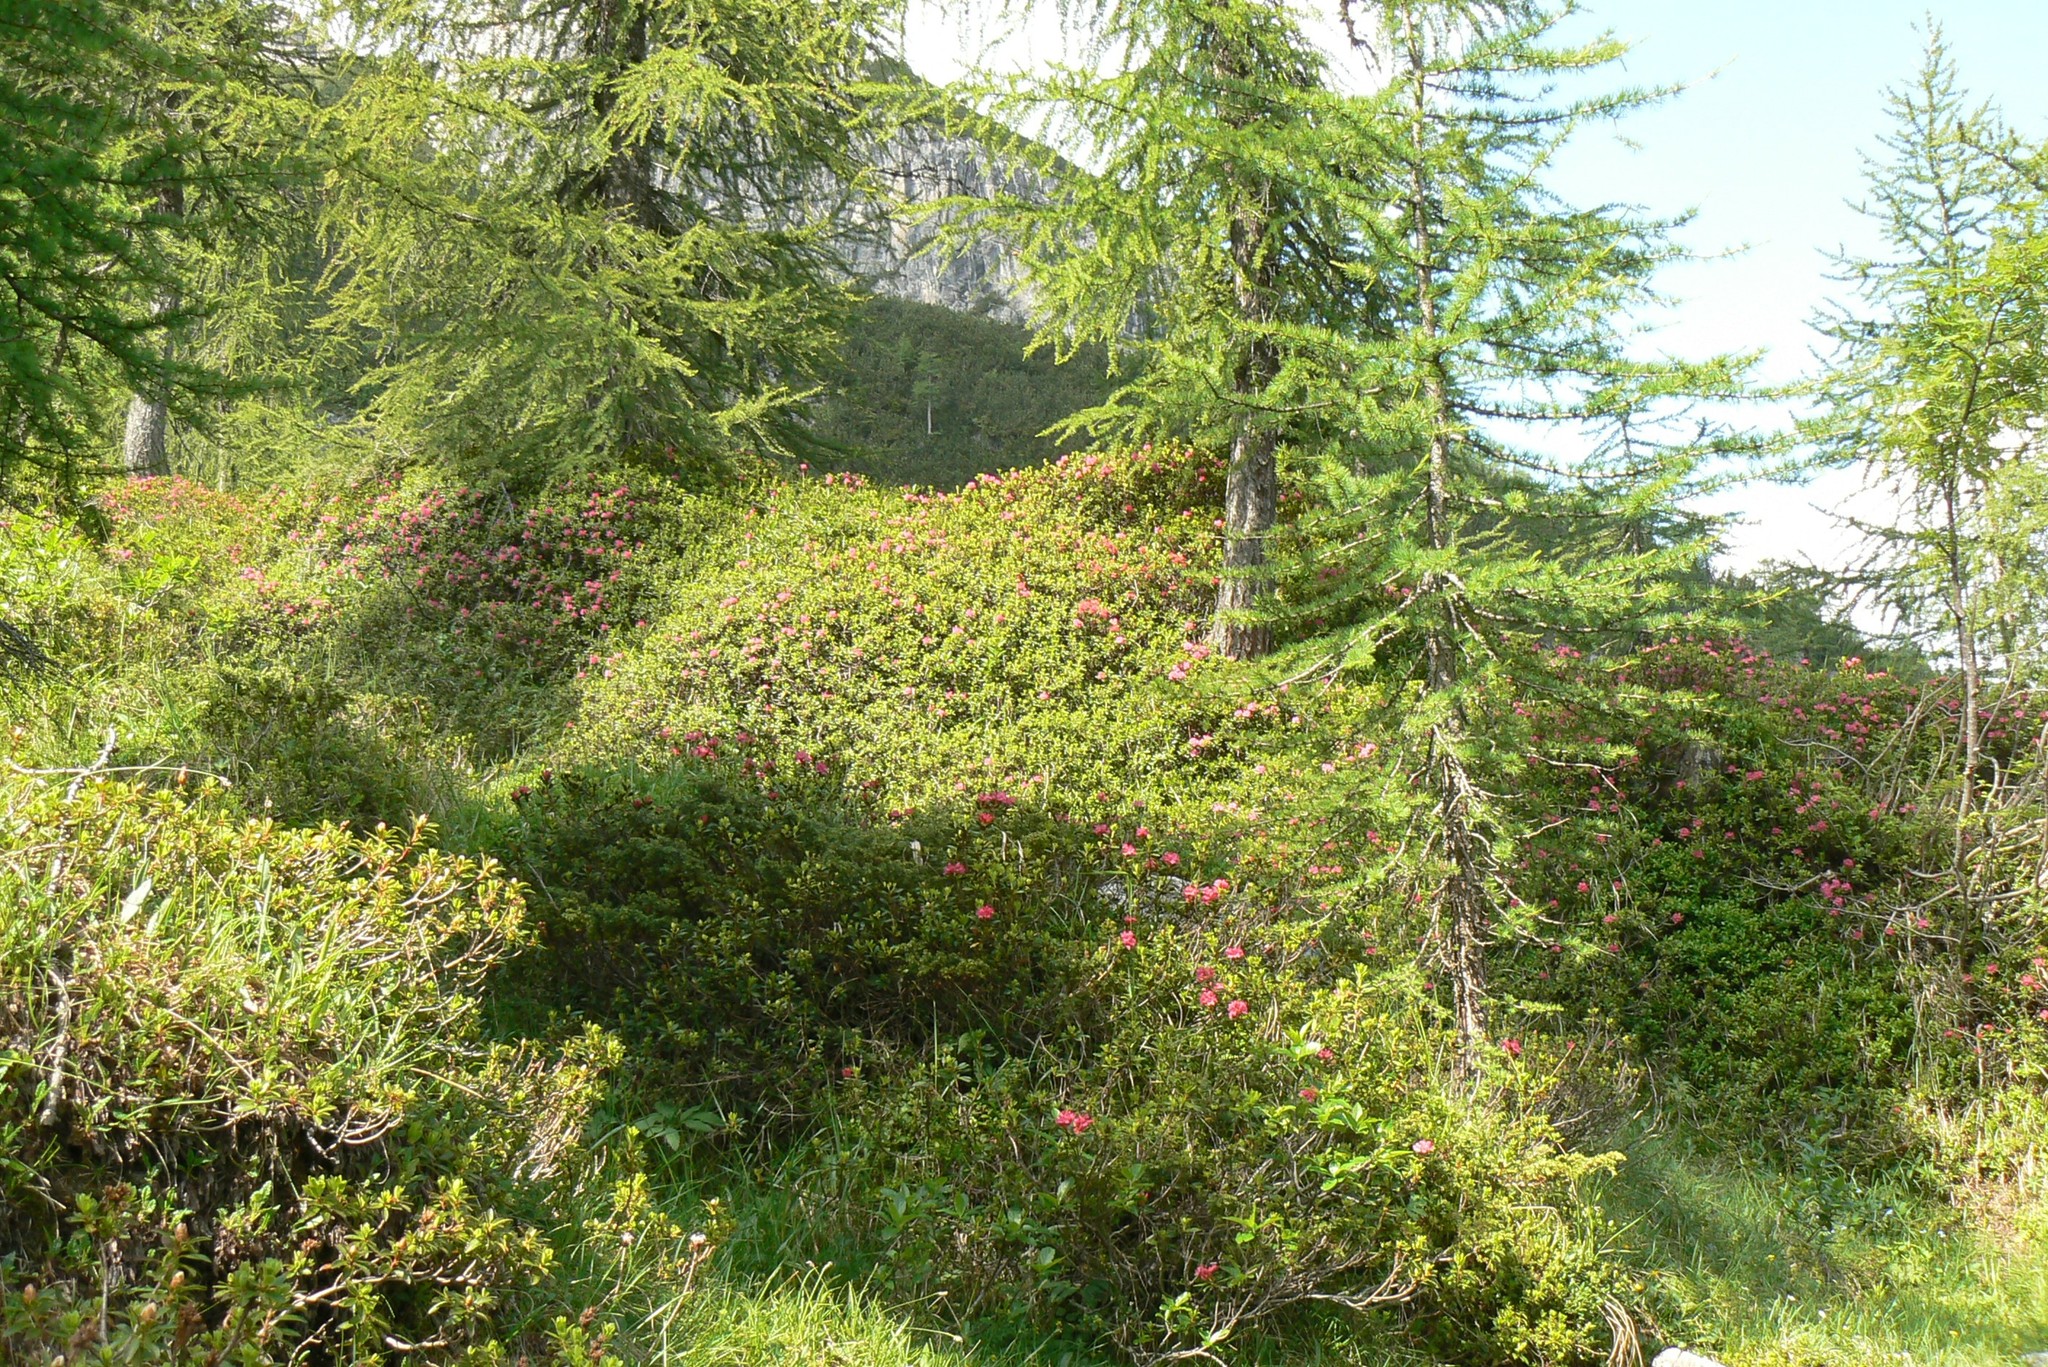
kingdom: Plantae
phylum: Tracheophyta
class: Magnoliopsida
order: Ericales
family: Ericaceae
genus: Rhododendron
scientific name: Rhododendron ferrugineum
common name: Alpenrose
